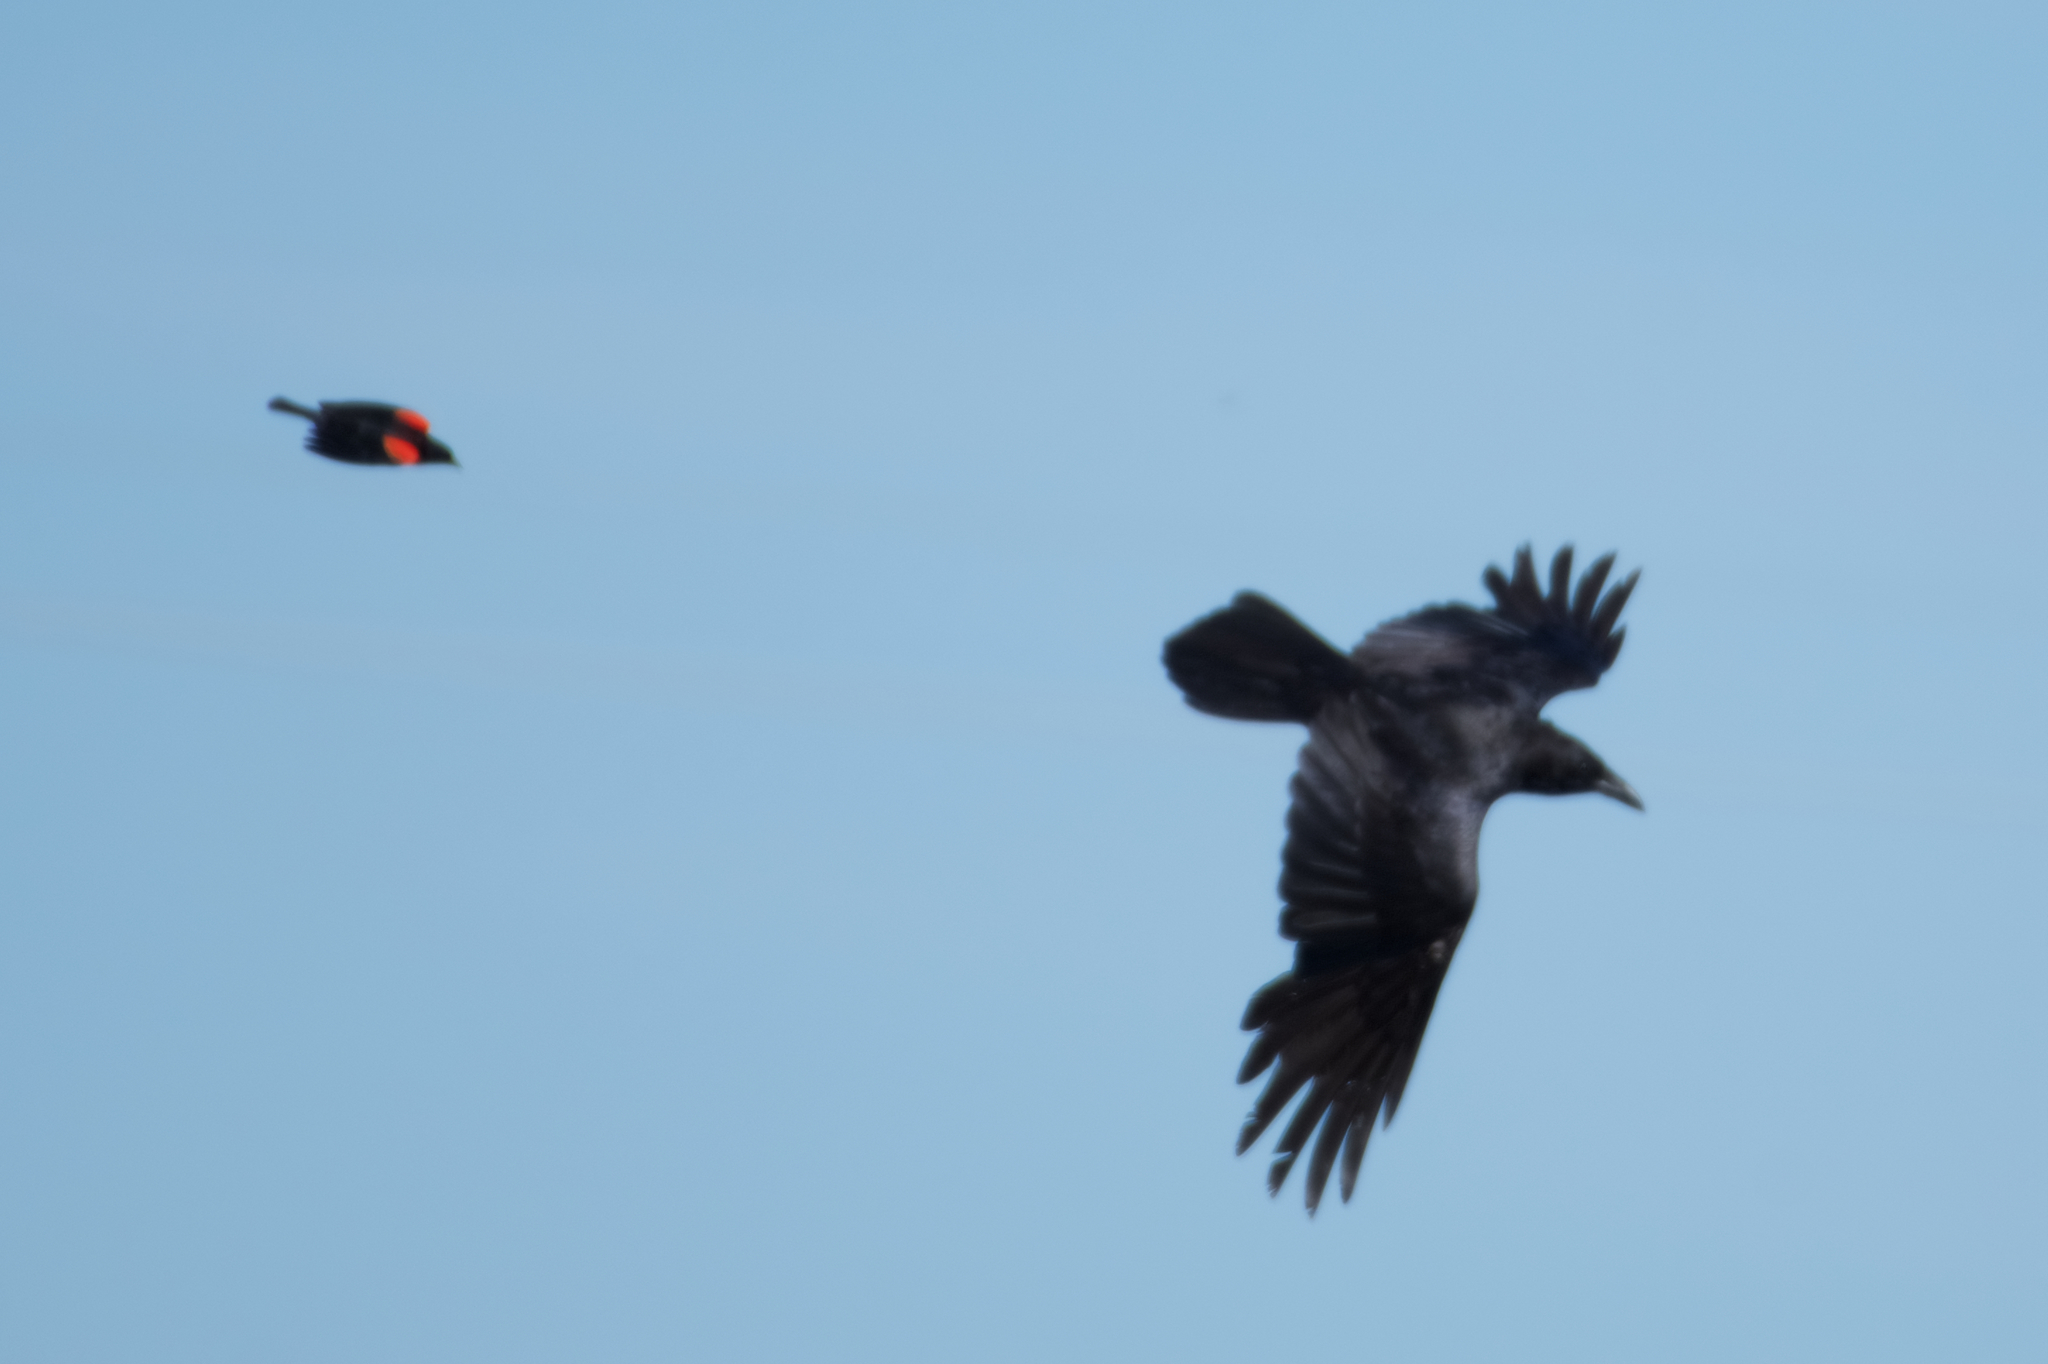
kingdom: Animalia
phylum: Chordata
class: Aves
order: Passeriformes
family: Corvidae
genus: Corvus
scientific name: Corvus brachyrhynchos
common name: American crow
